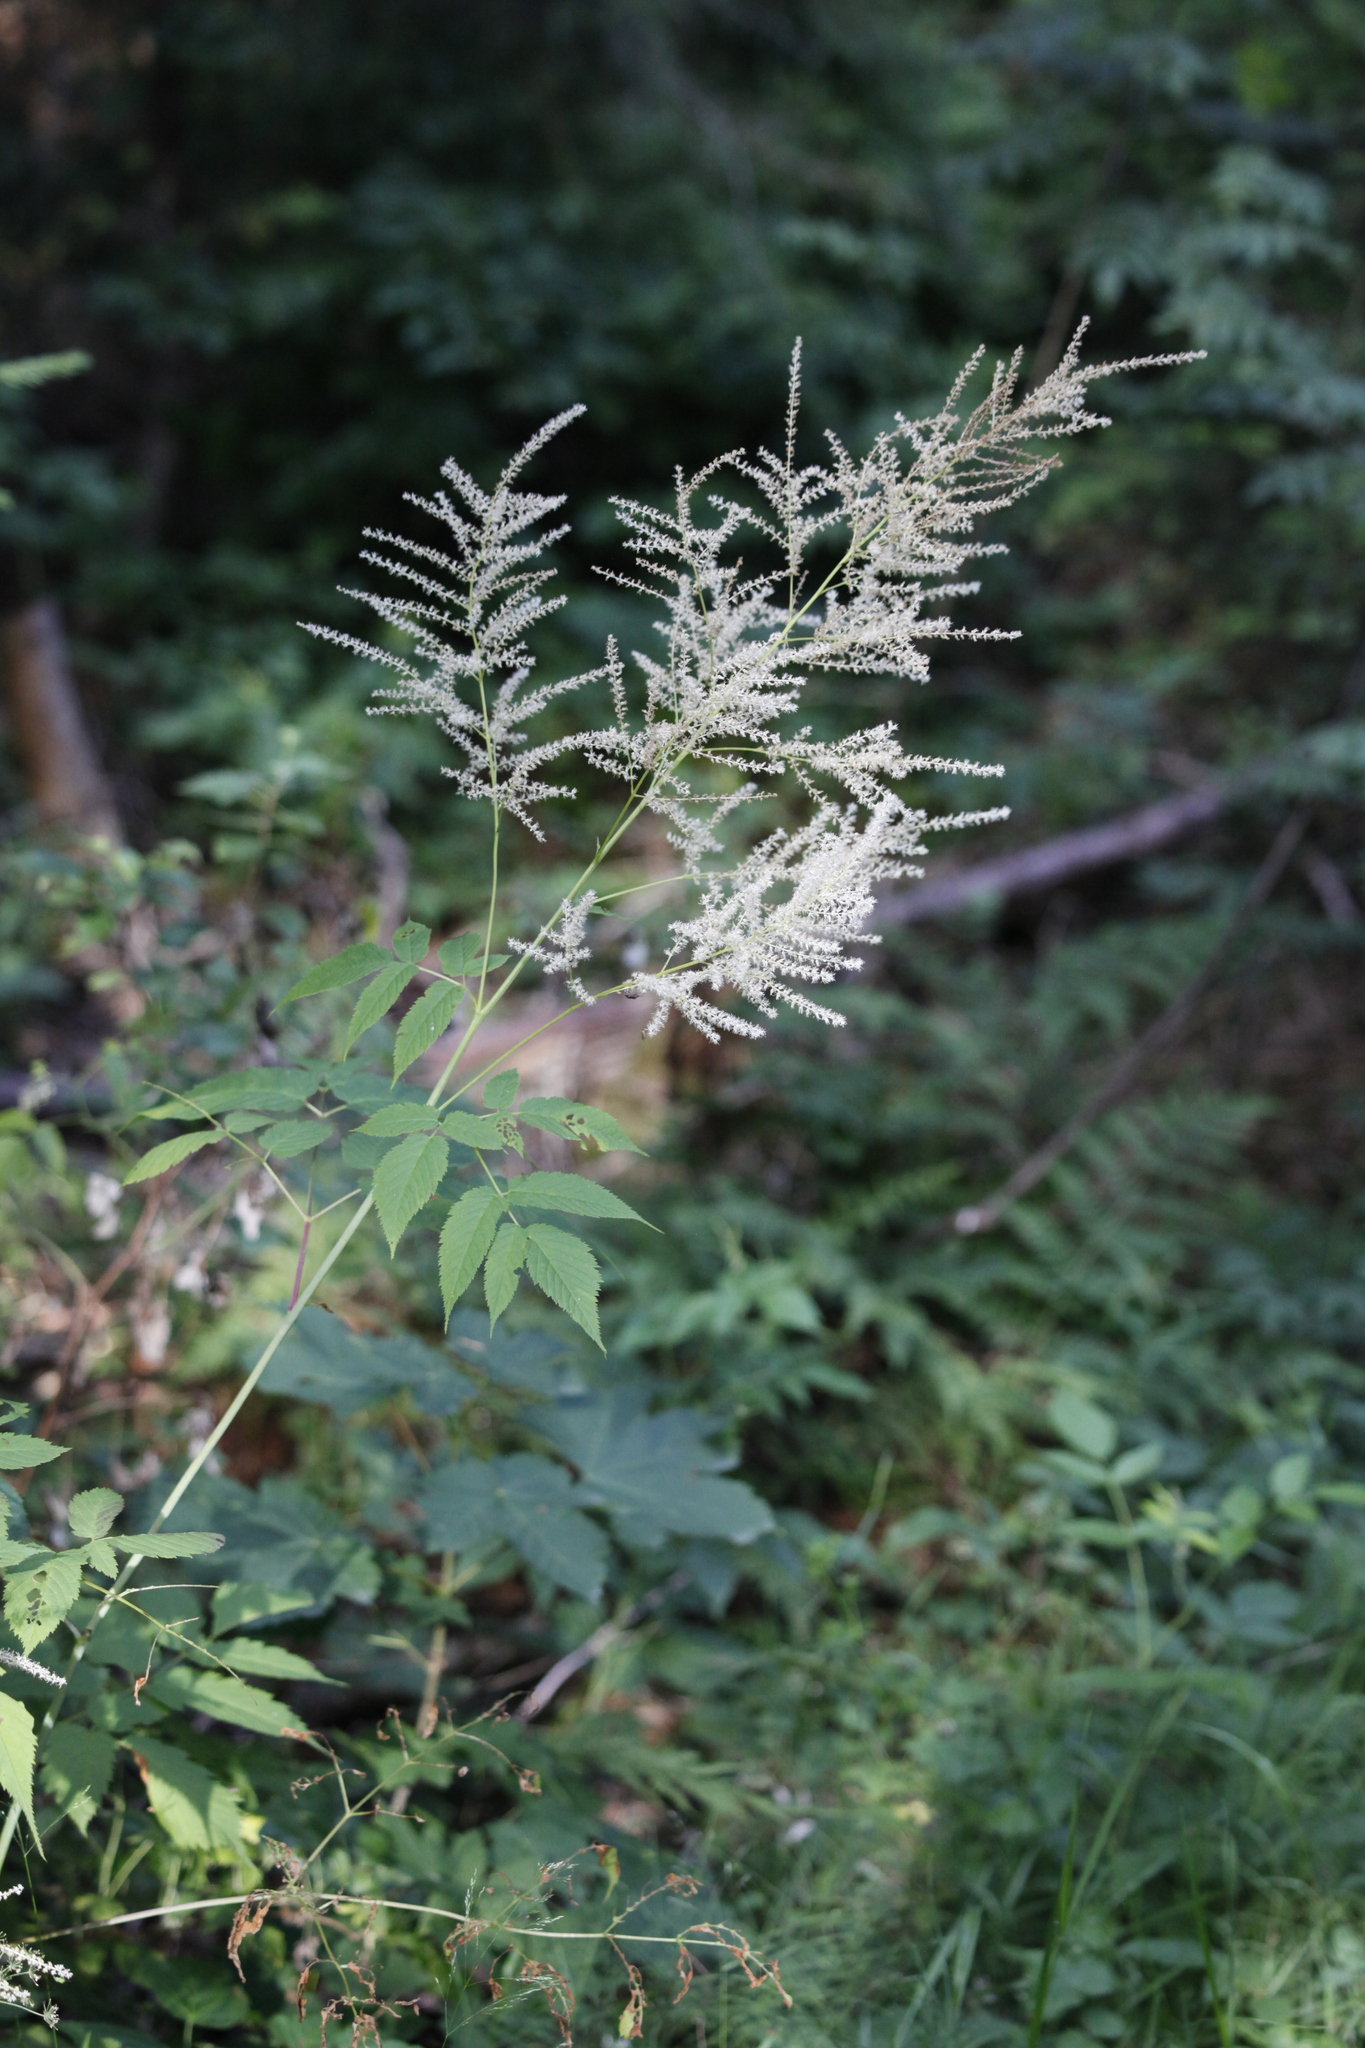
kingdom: Plantae
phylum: Tracheophyta
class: Magnoliopsida
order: Rosales
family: Rosaceae
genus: Aruncus
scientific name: Aruncus dioicus
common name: Buck's-beard
